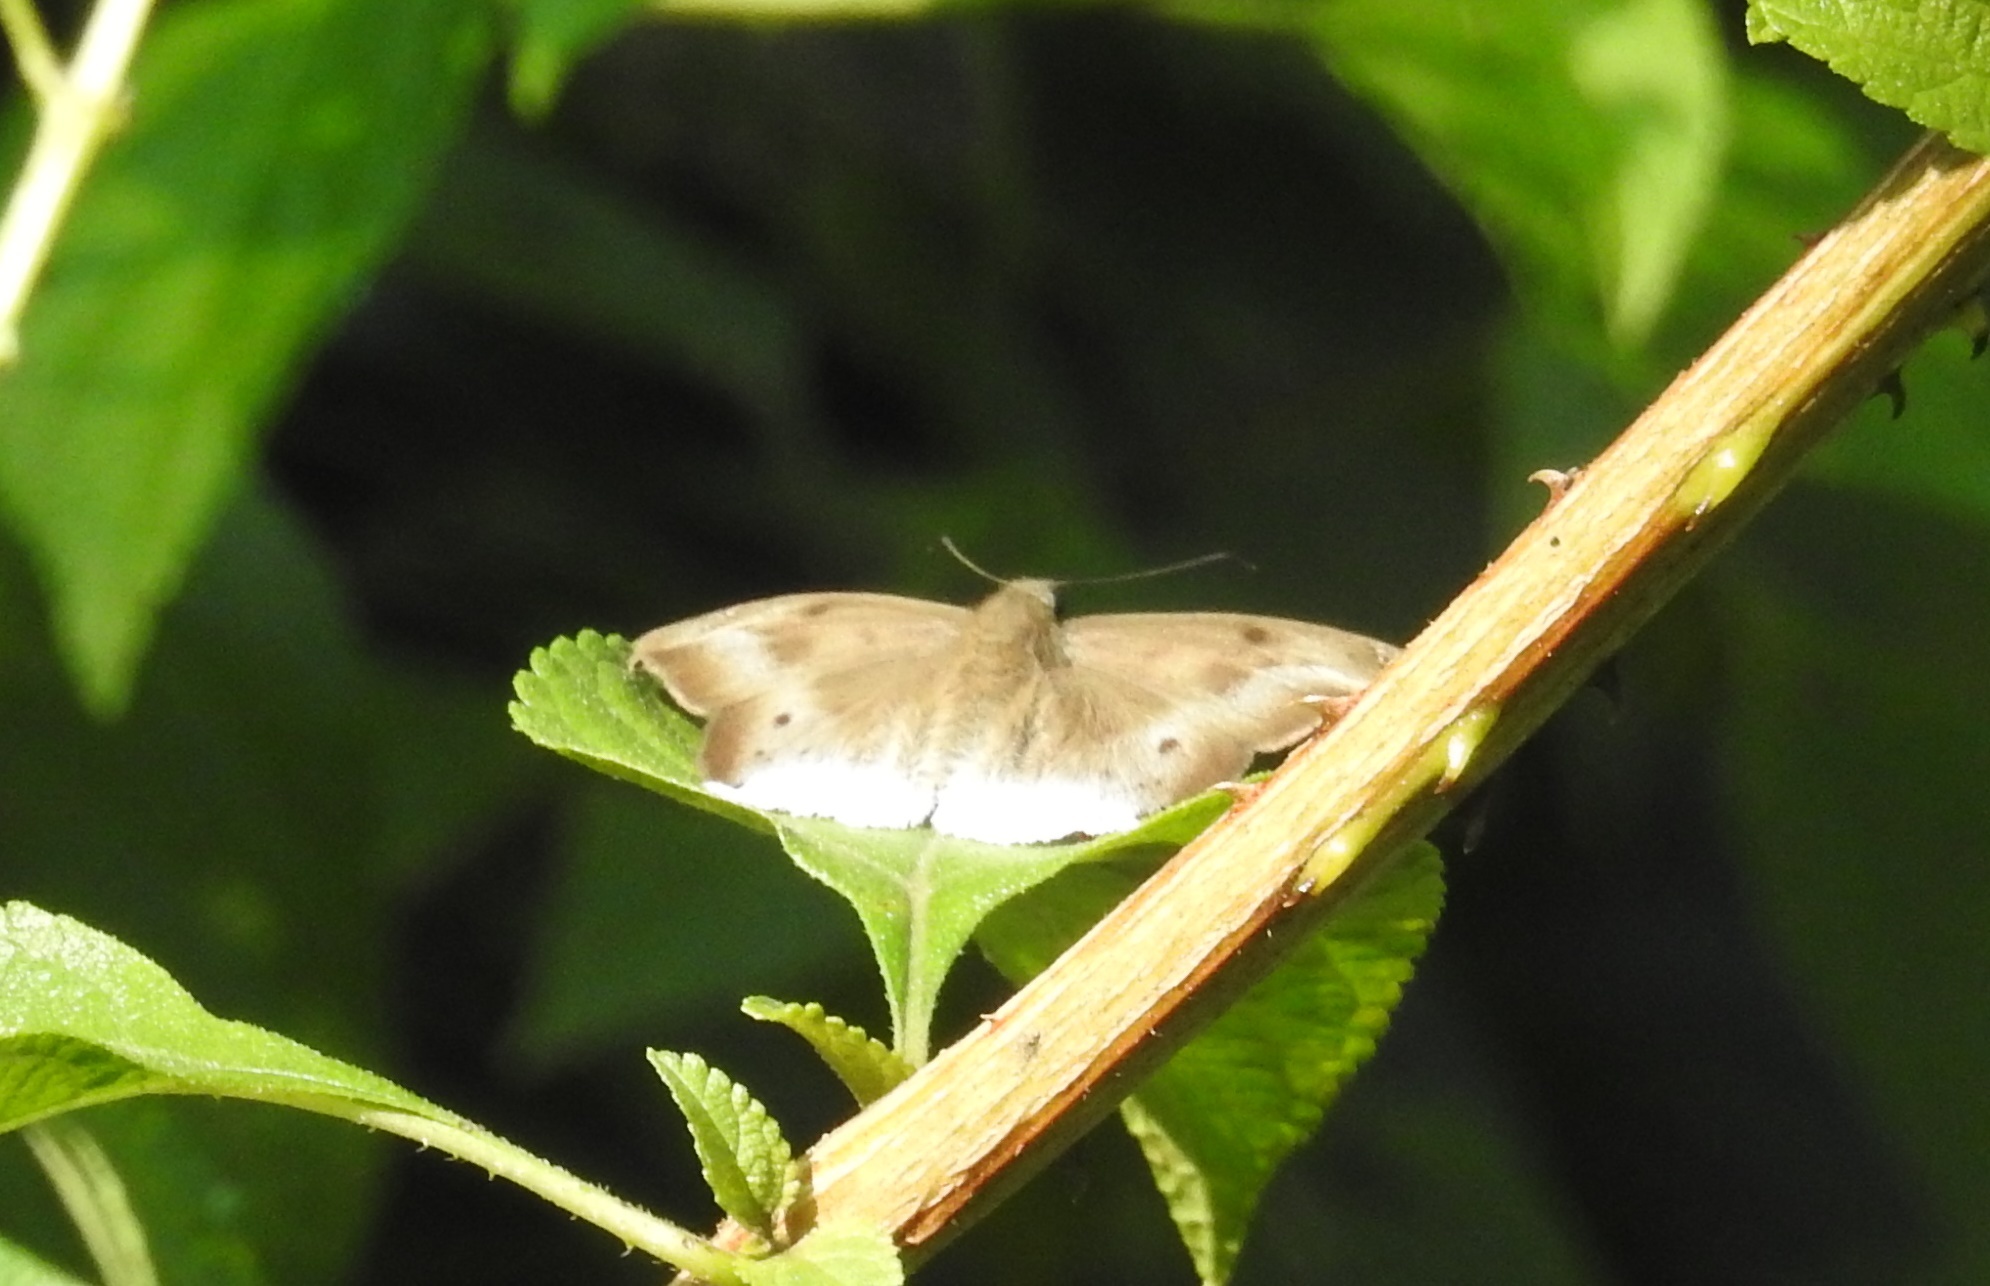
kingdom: Animalia
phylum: Arthropoda
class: Insecta
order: Lepidoptera
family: Hesperiidae
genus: Tagiades
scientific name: Tagiades japetus
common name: Pied flat
